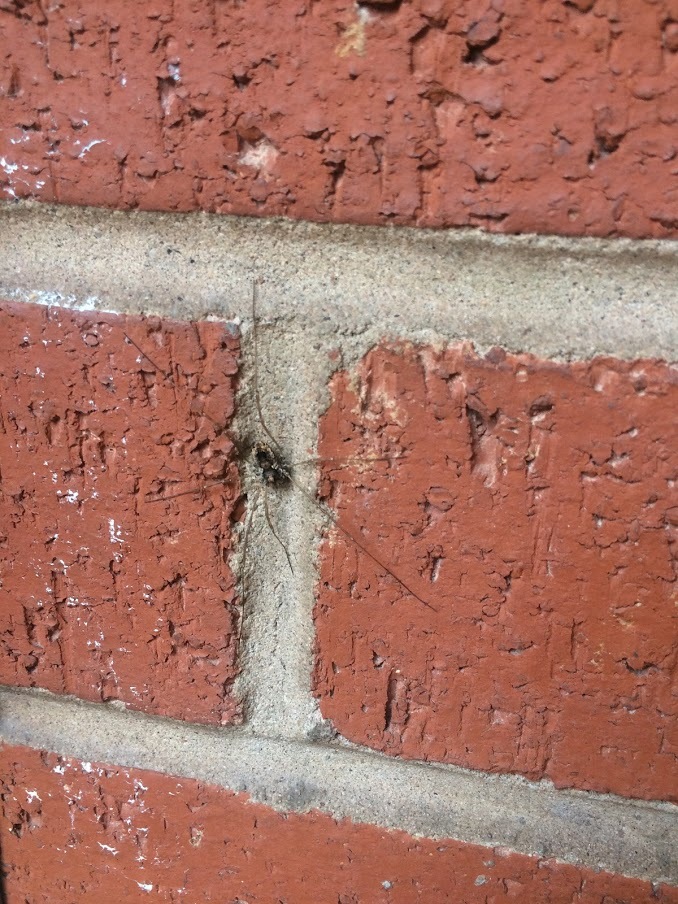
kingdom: Animalia
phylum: Arthropoda
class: Arachnida
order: Opiliones
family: Phalangiidae
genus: Platybunus
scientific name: Platybunus pinetorum
